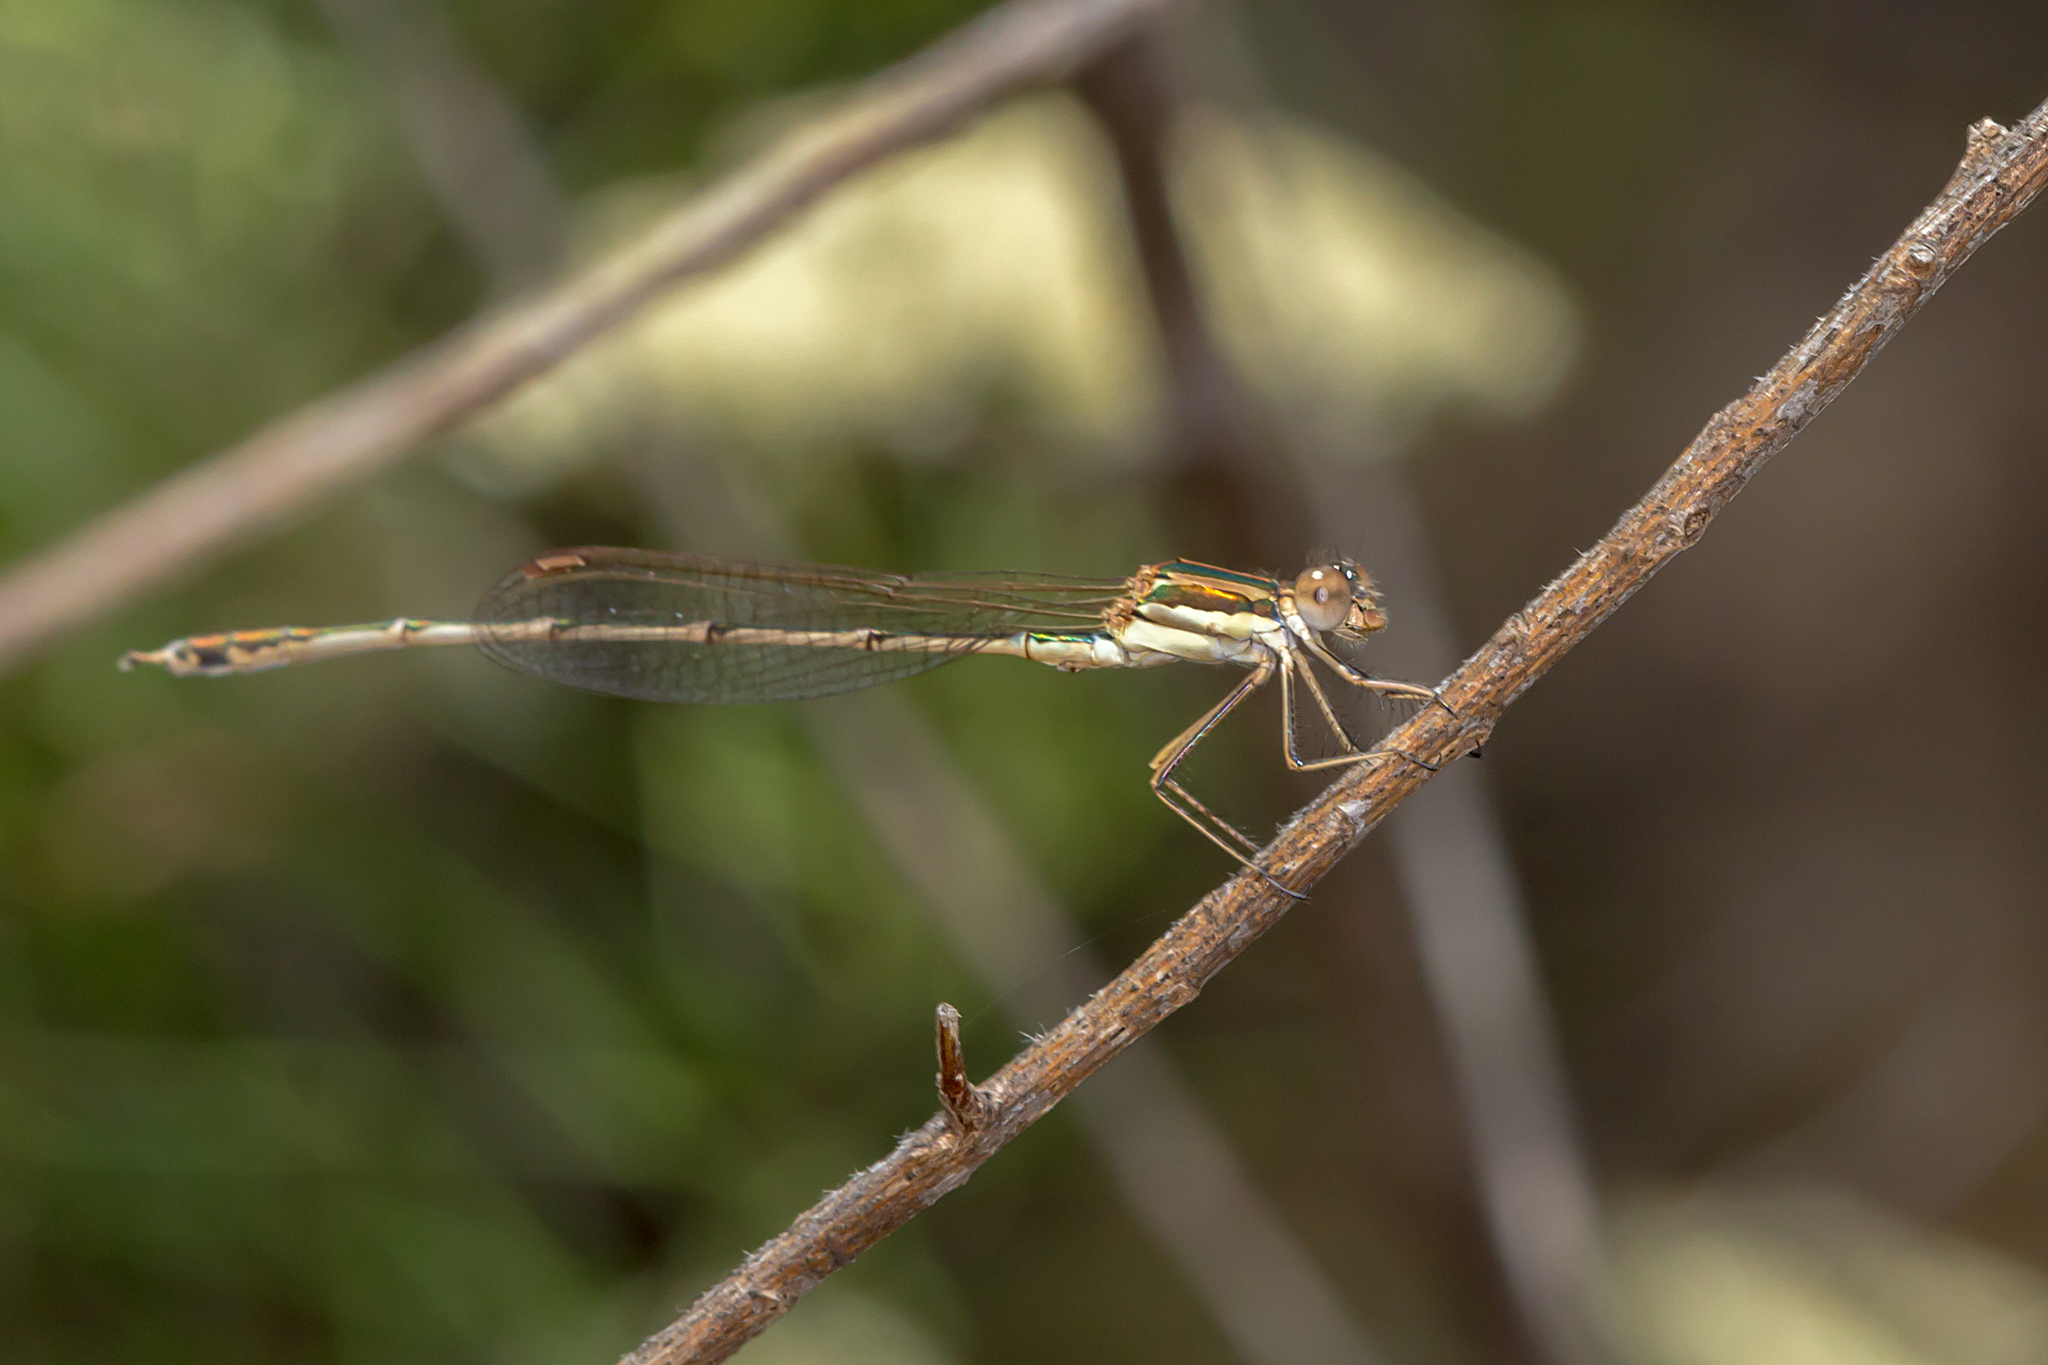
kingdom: Animalia
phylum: Arthropoda
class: Insecta
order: Odonata
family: Lestidae
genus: Austrolestes
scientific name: Austrolestes analis
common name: Slender ringtail
